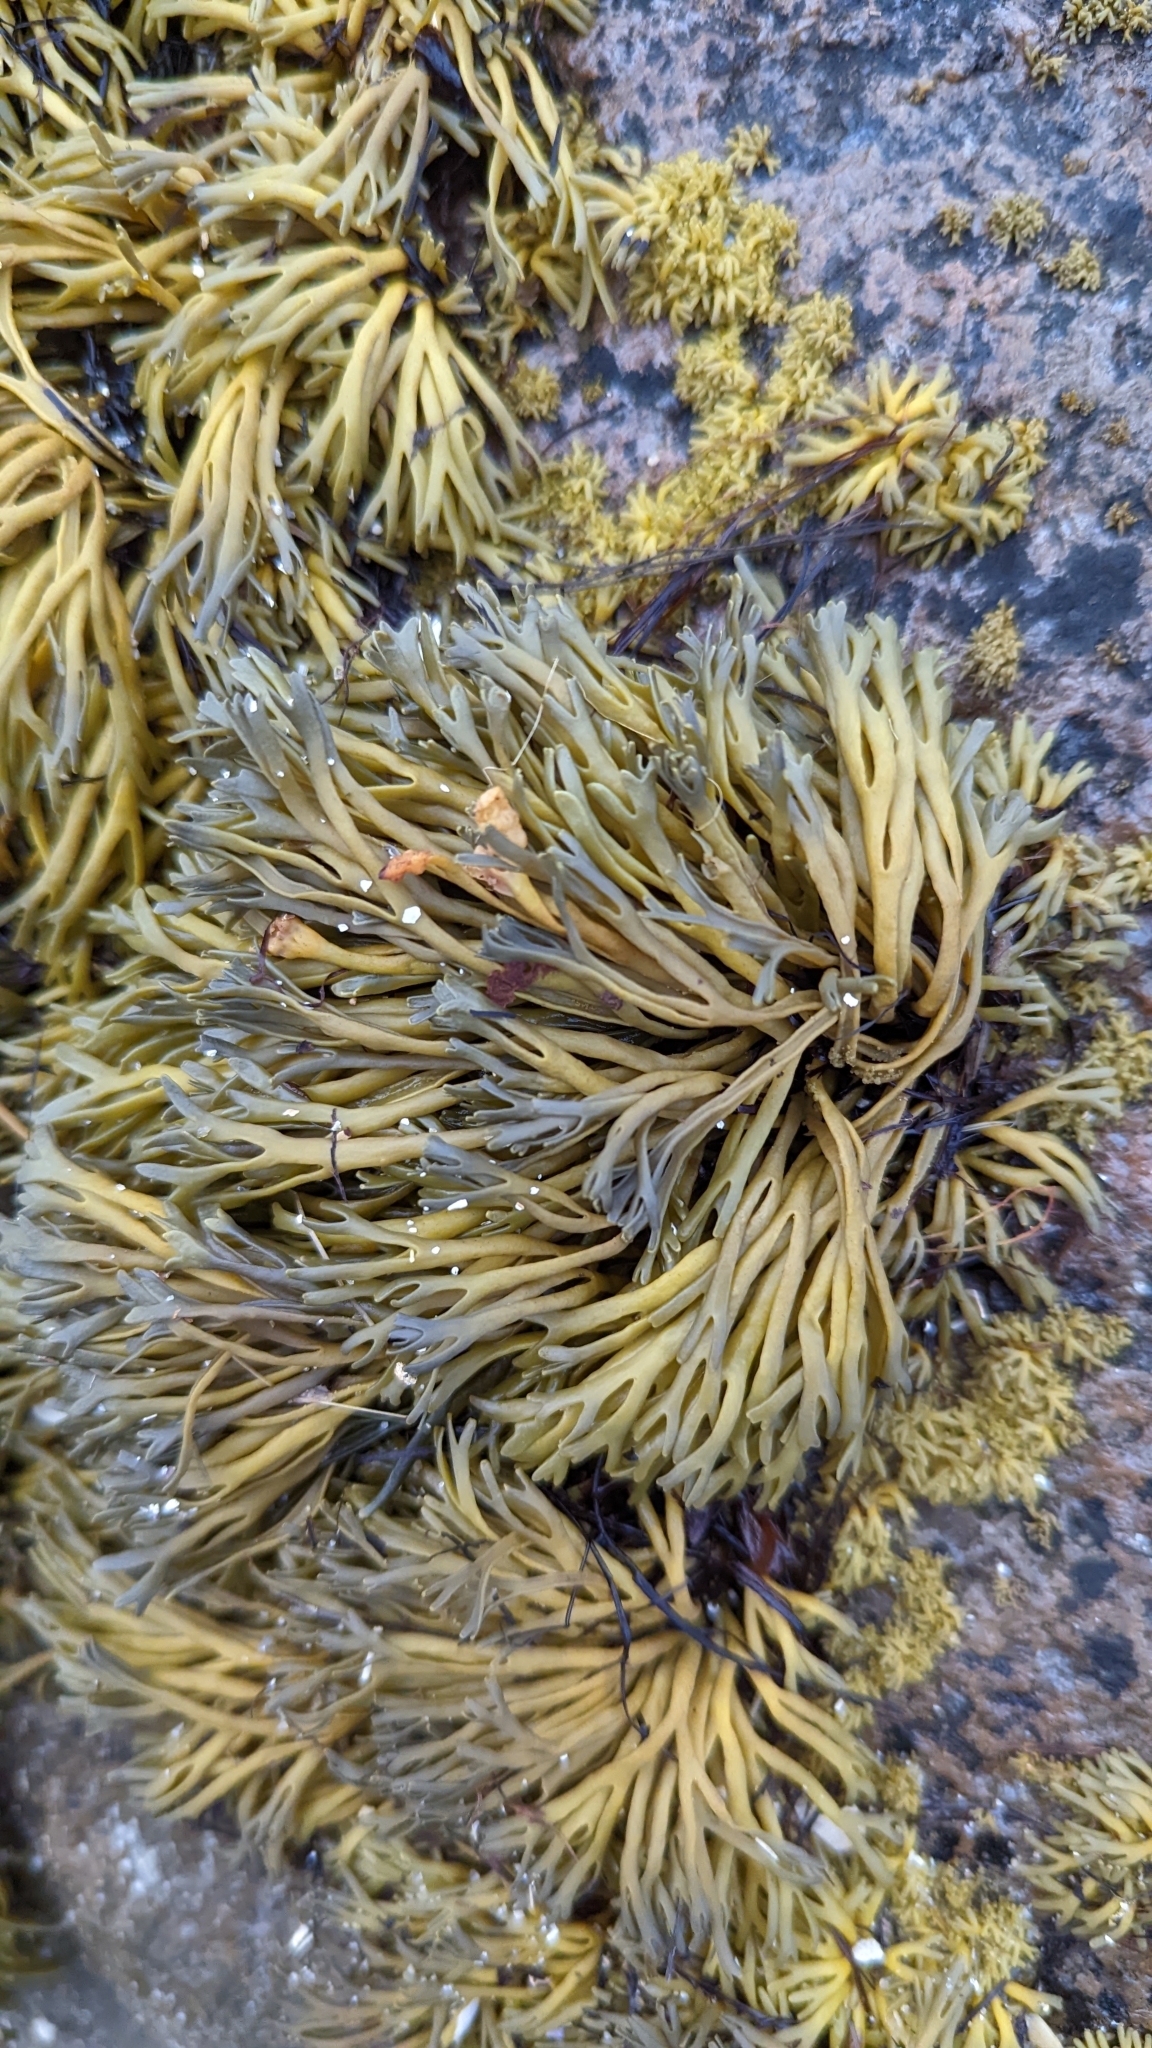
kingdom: Chromista
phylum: Ochrophyta
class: Phaeophyceae
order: Fucales
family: Fucaceae
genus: Pelvetia
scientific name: Pelvetia canaliculata
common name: Channelled wrack
